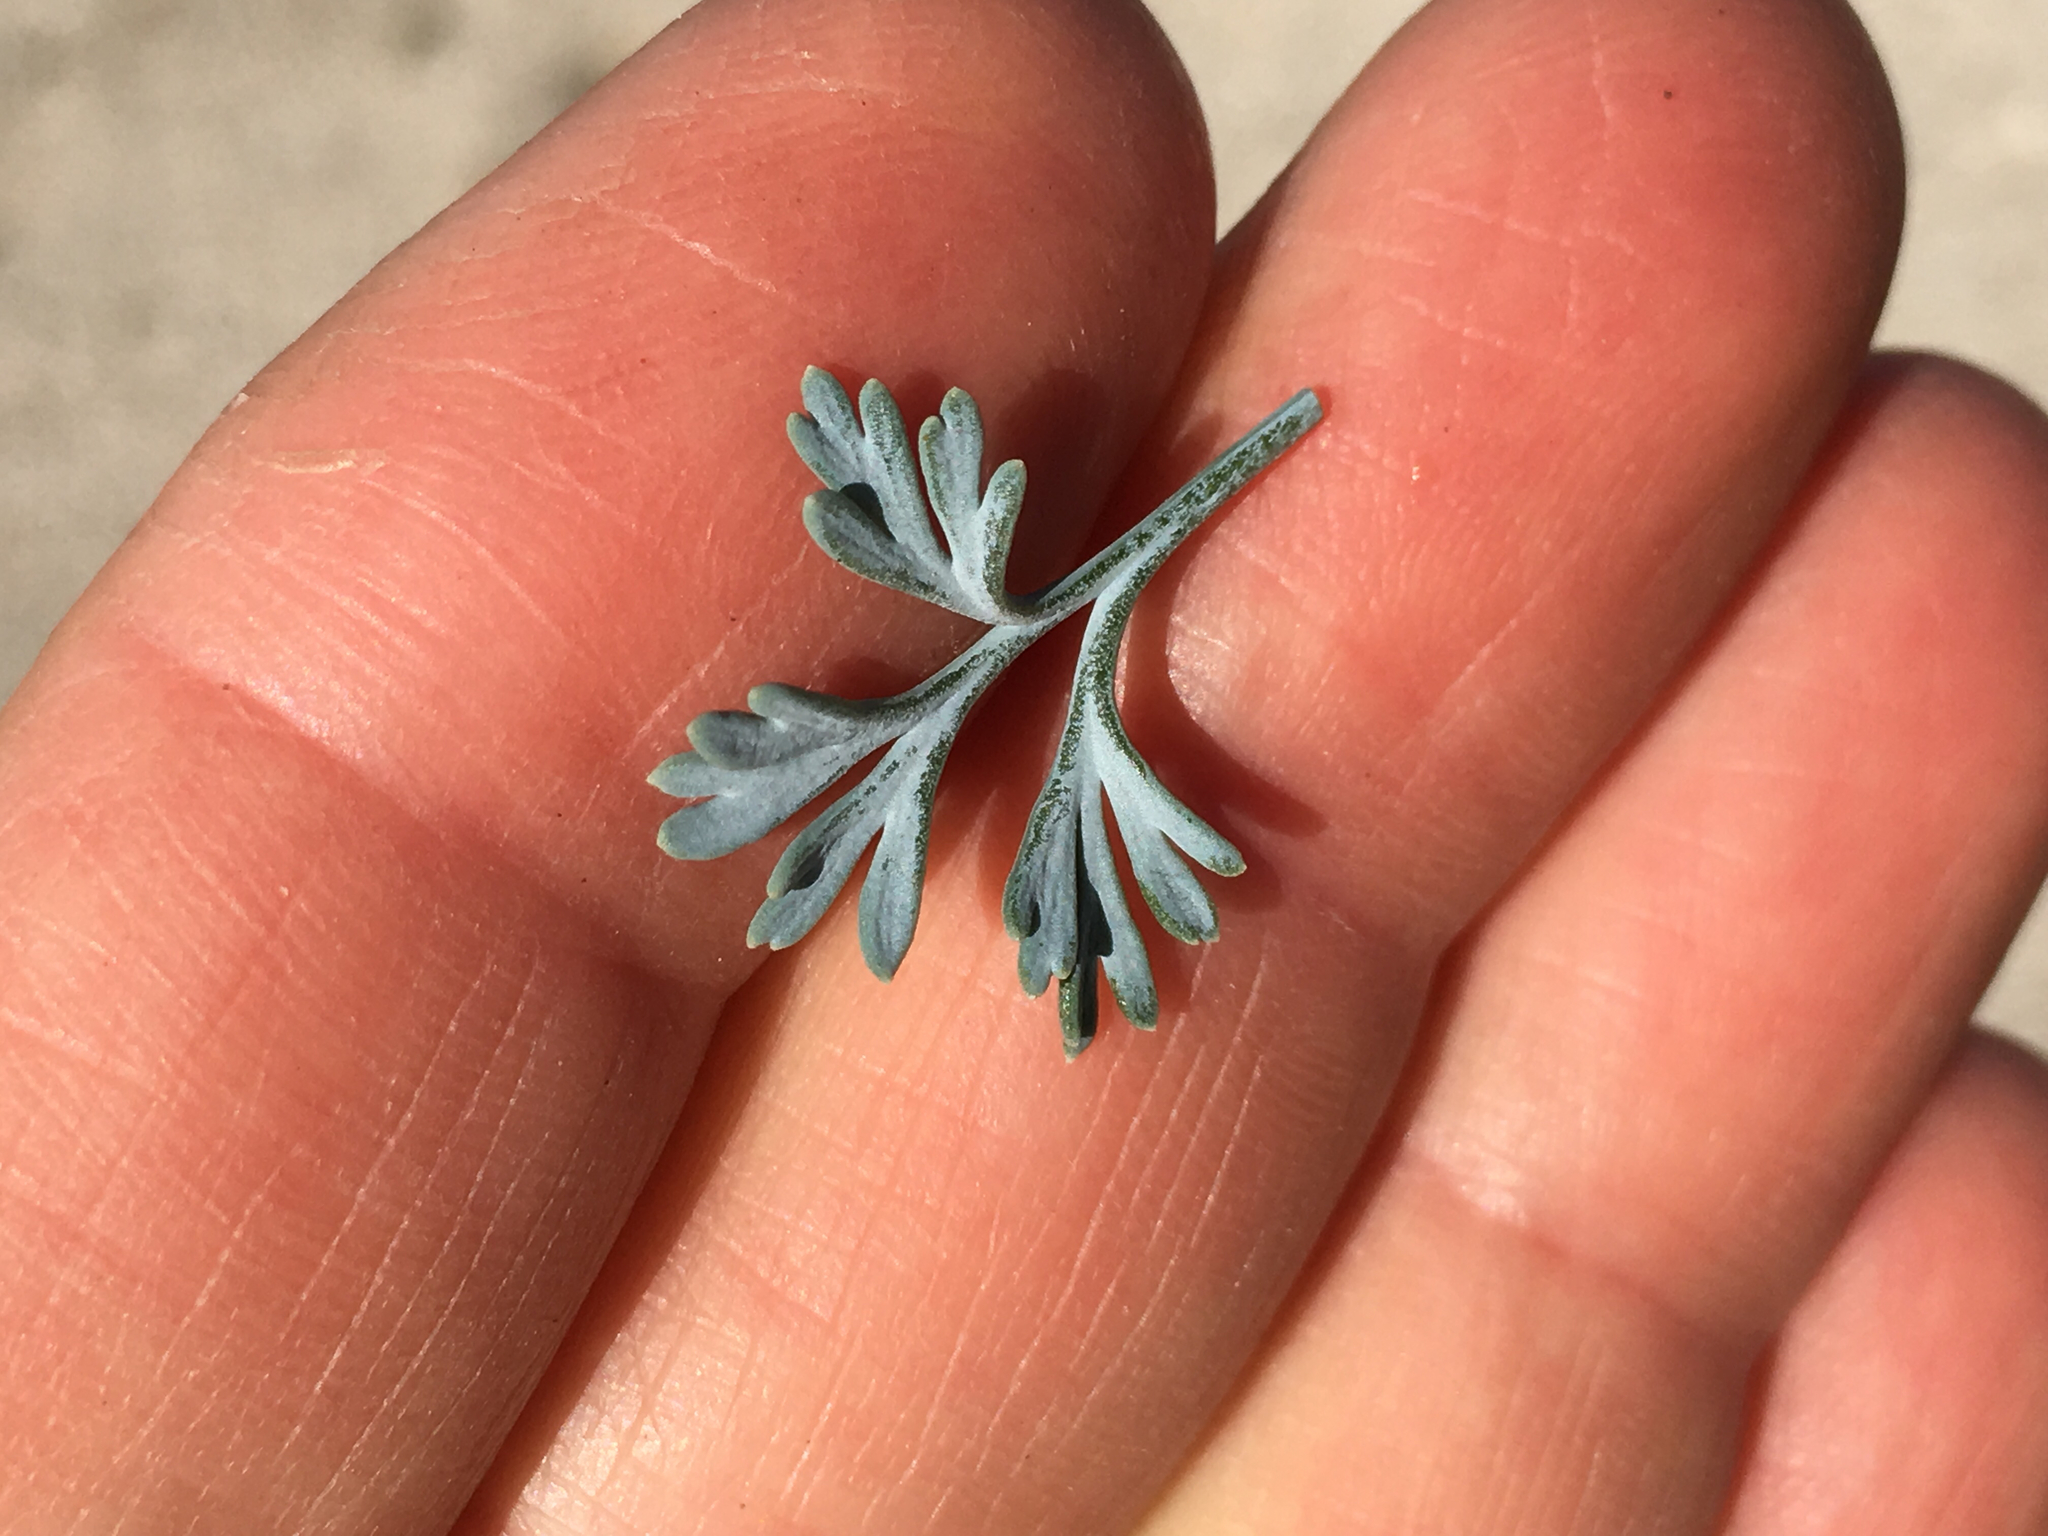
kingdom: Plantae
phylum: Tracheophyta
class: Magnoliopsida
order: Ranunculales
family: Papaveraceae
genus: Eschscholzia
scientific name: Eschscholzia minutiflora
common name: Small-flower california-poppy
